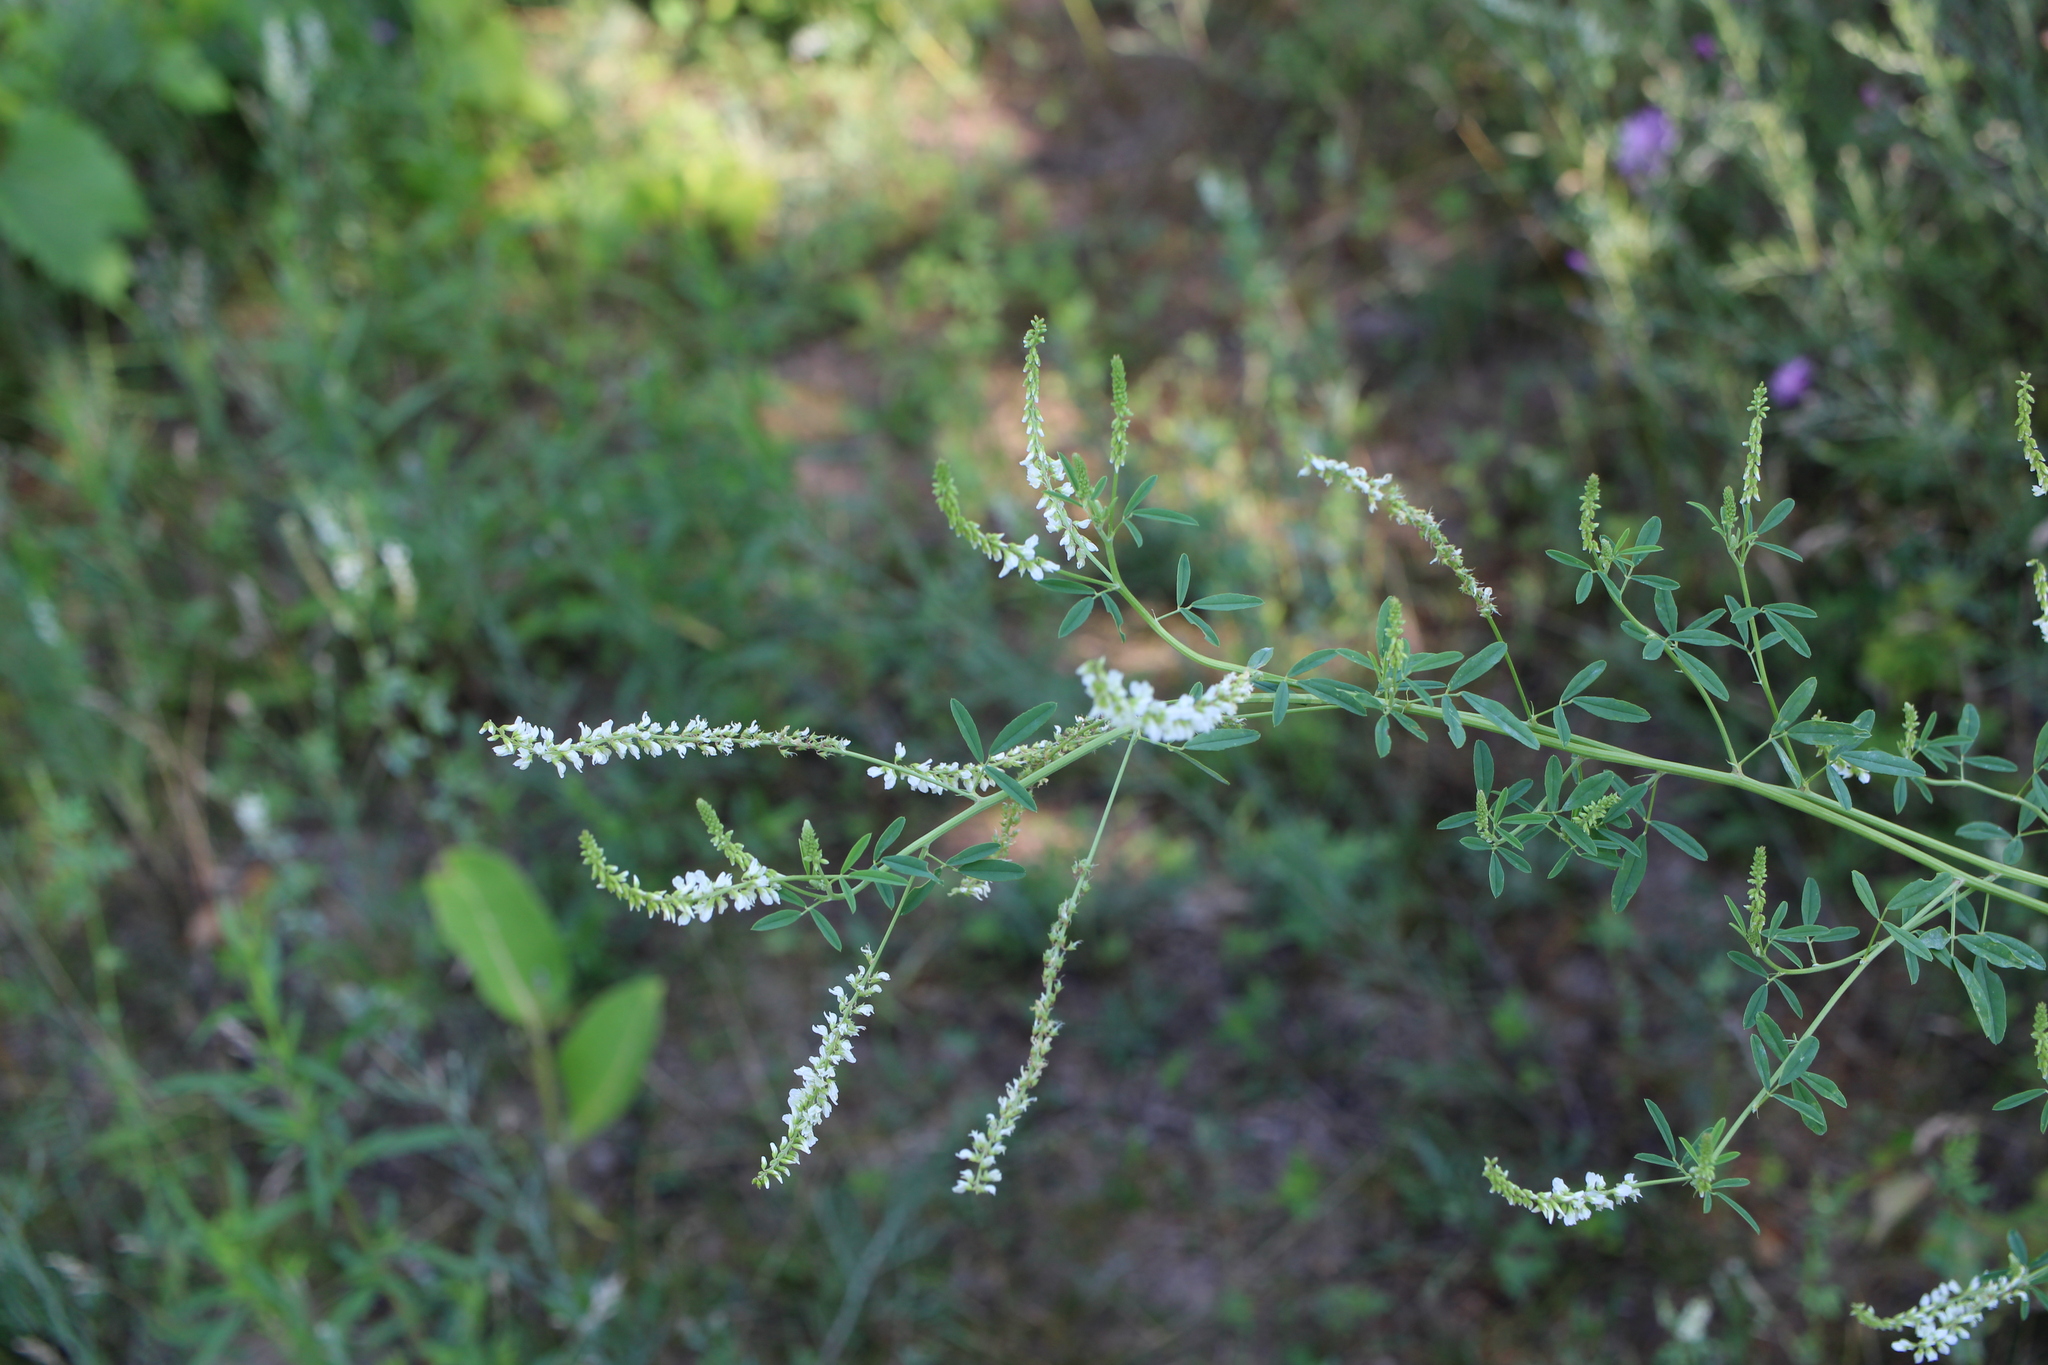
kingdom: Plantae
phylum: Tracheophyta
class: Magnoliopsida
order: Fabales
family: Fabaceae
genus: Melilotus
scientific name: Melilotus albus
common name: White melilot
